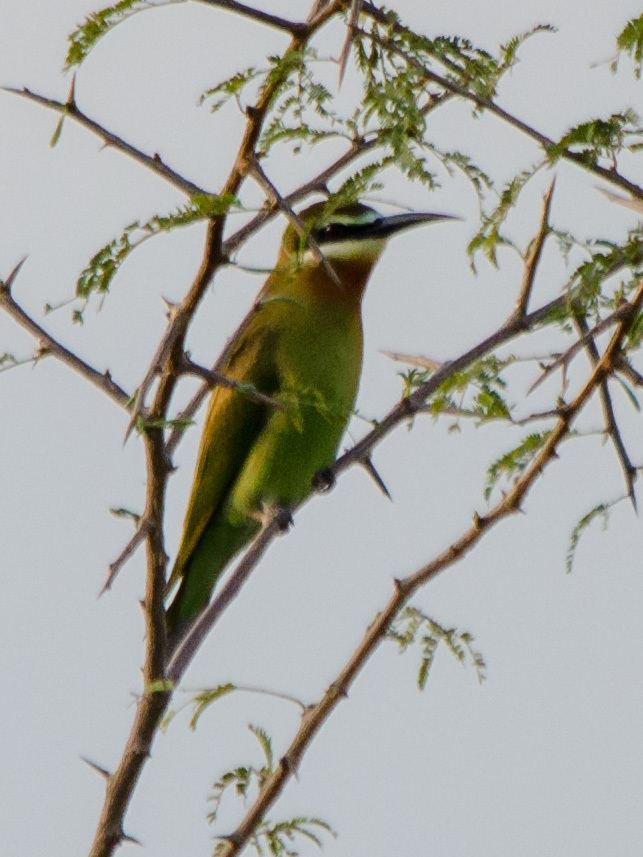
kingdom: Animalia
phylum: Chordata
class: Aves
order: Coraciiformes
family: Meropidae
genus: Merops
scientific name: Merops superciliosus
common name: Olive bee-eater
